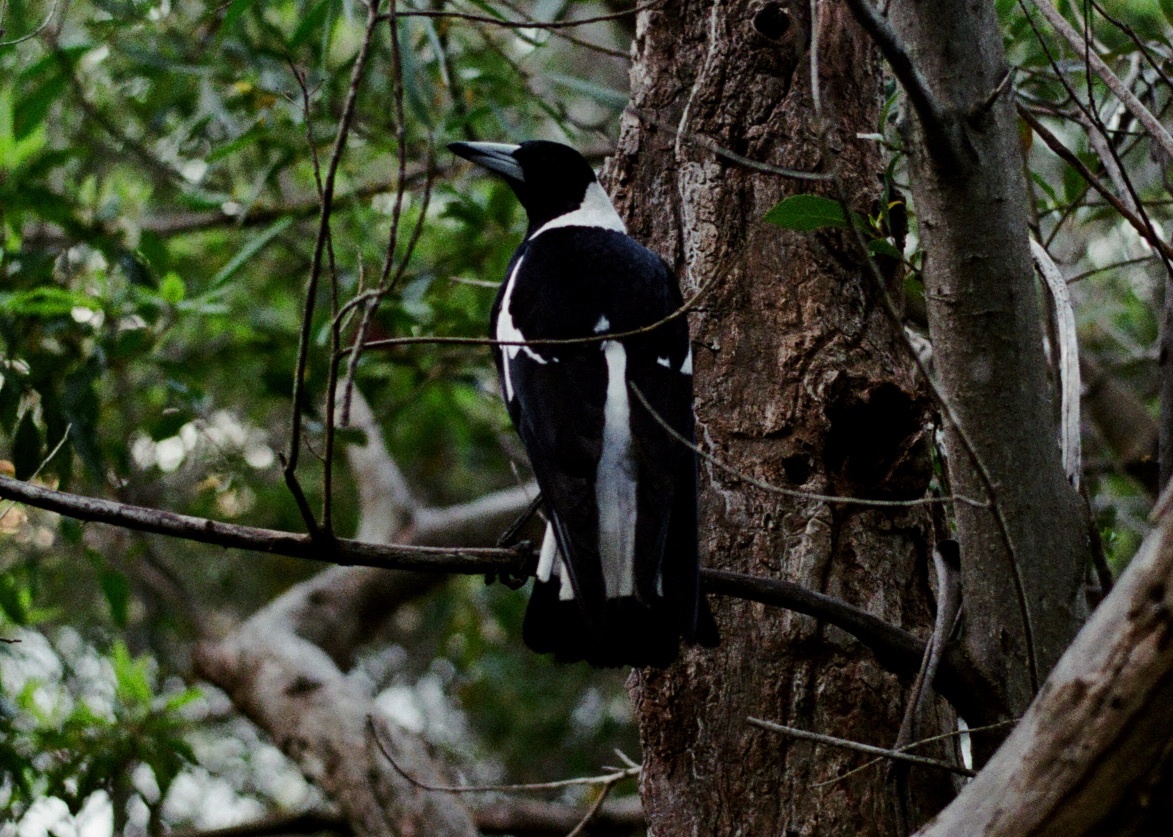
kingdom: Animalia
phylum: Chordata
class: Aves
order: Passeriformes
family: Cracticidae
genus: Gymnorhina
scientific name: Gymnorhina tibicen
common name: Australian magpie
